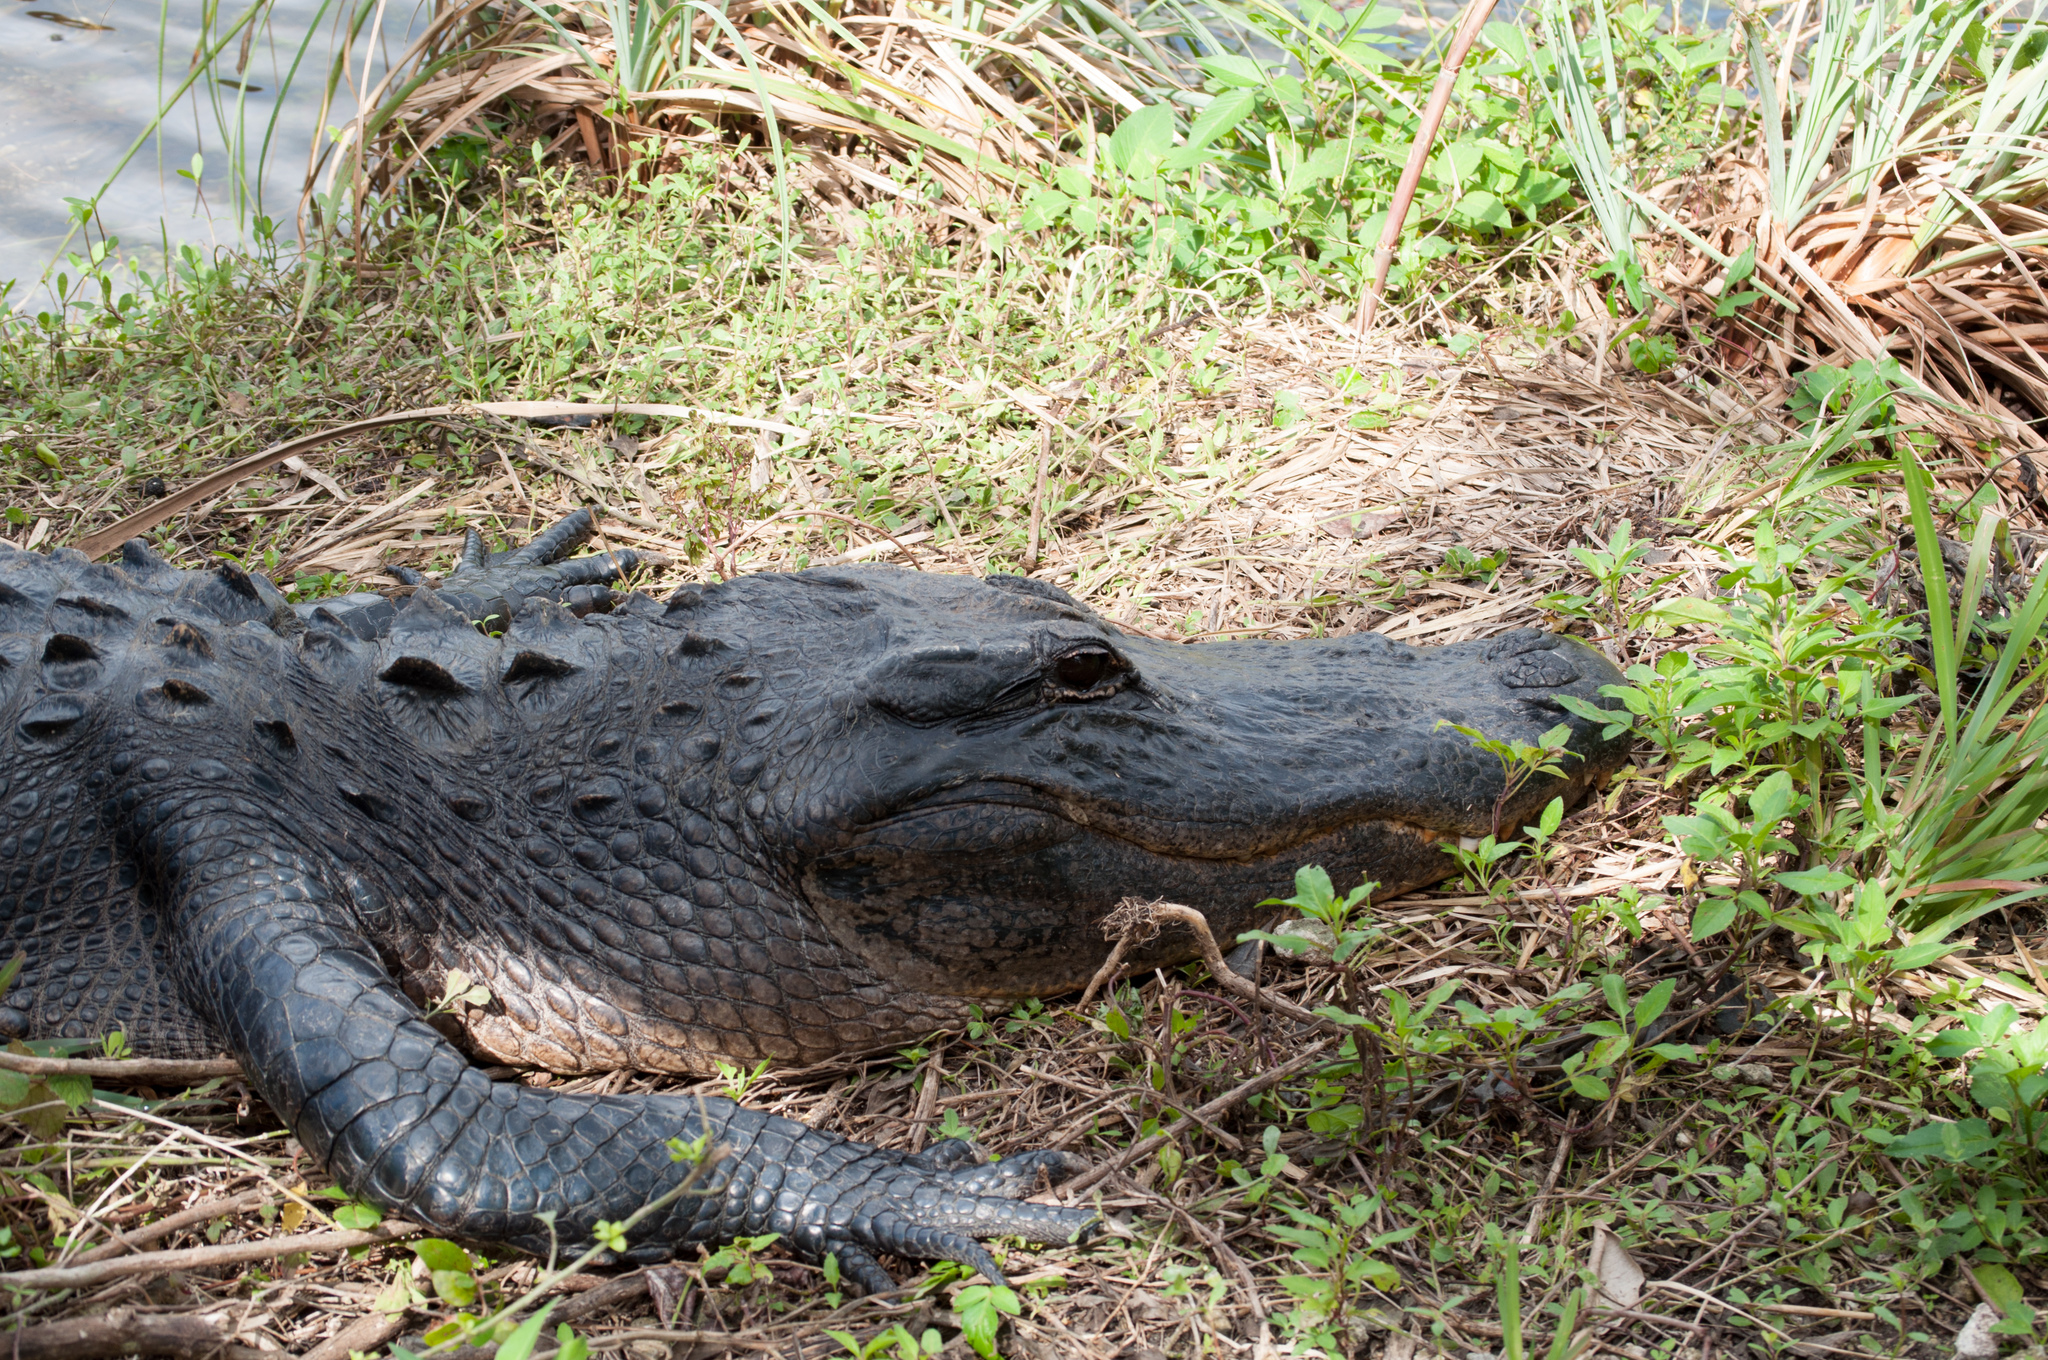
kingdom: Animalia
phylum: Chordata
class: Crocodylia
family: Alligatoridae
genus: Alligator
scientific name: Alligator mississippiensis
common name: American alligator
